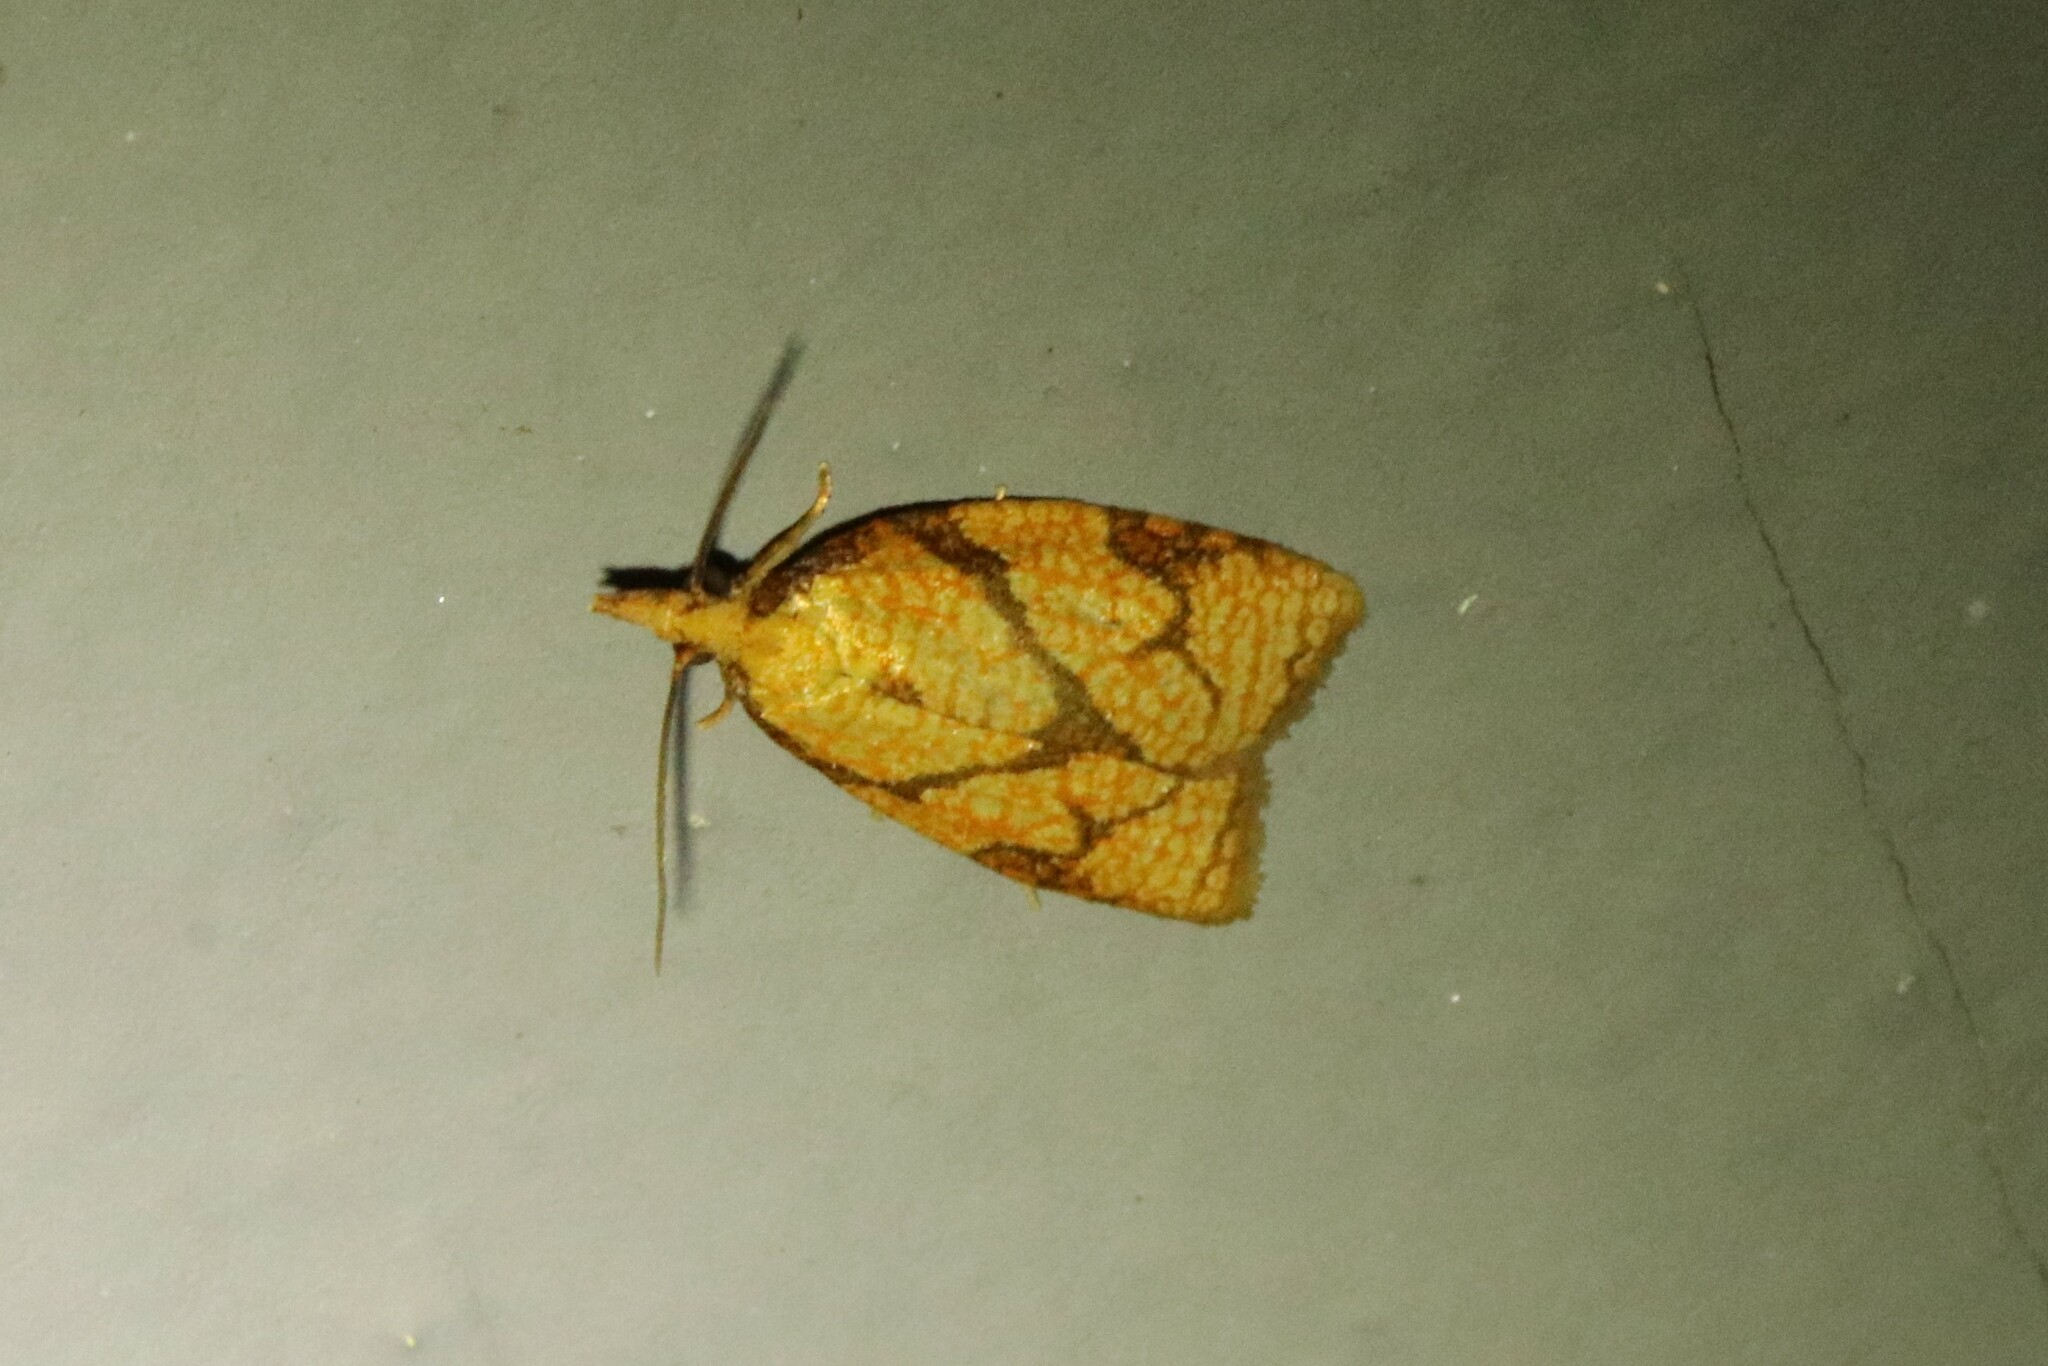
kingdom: Animalia
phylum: Arthropoda
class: Insecta
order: Lepidoptera
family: Tortricidae
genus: Cenopis
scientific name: Cenopis reticulatana
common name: Reticulated fruitworm moth
